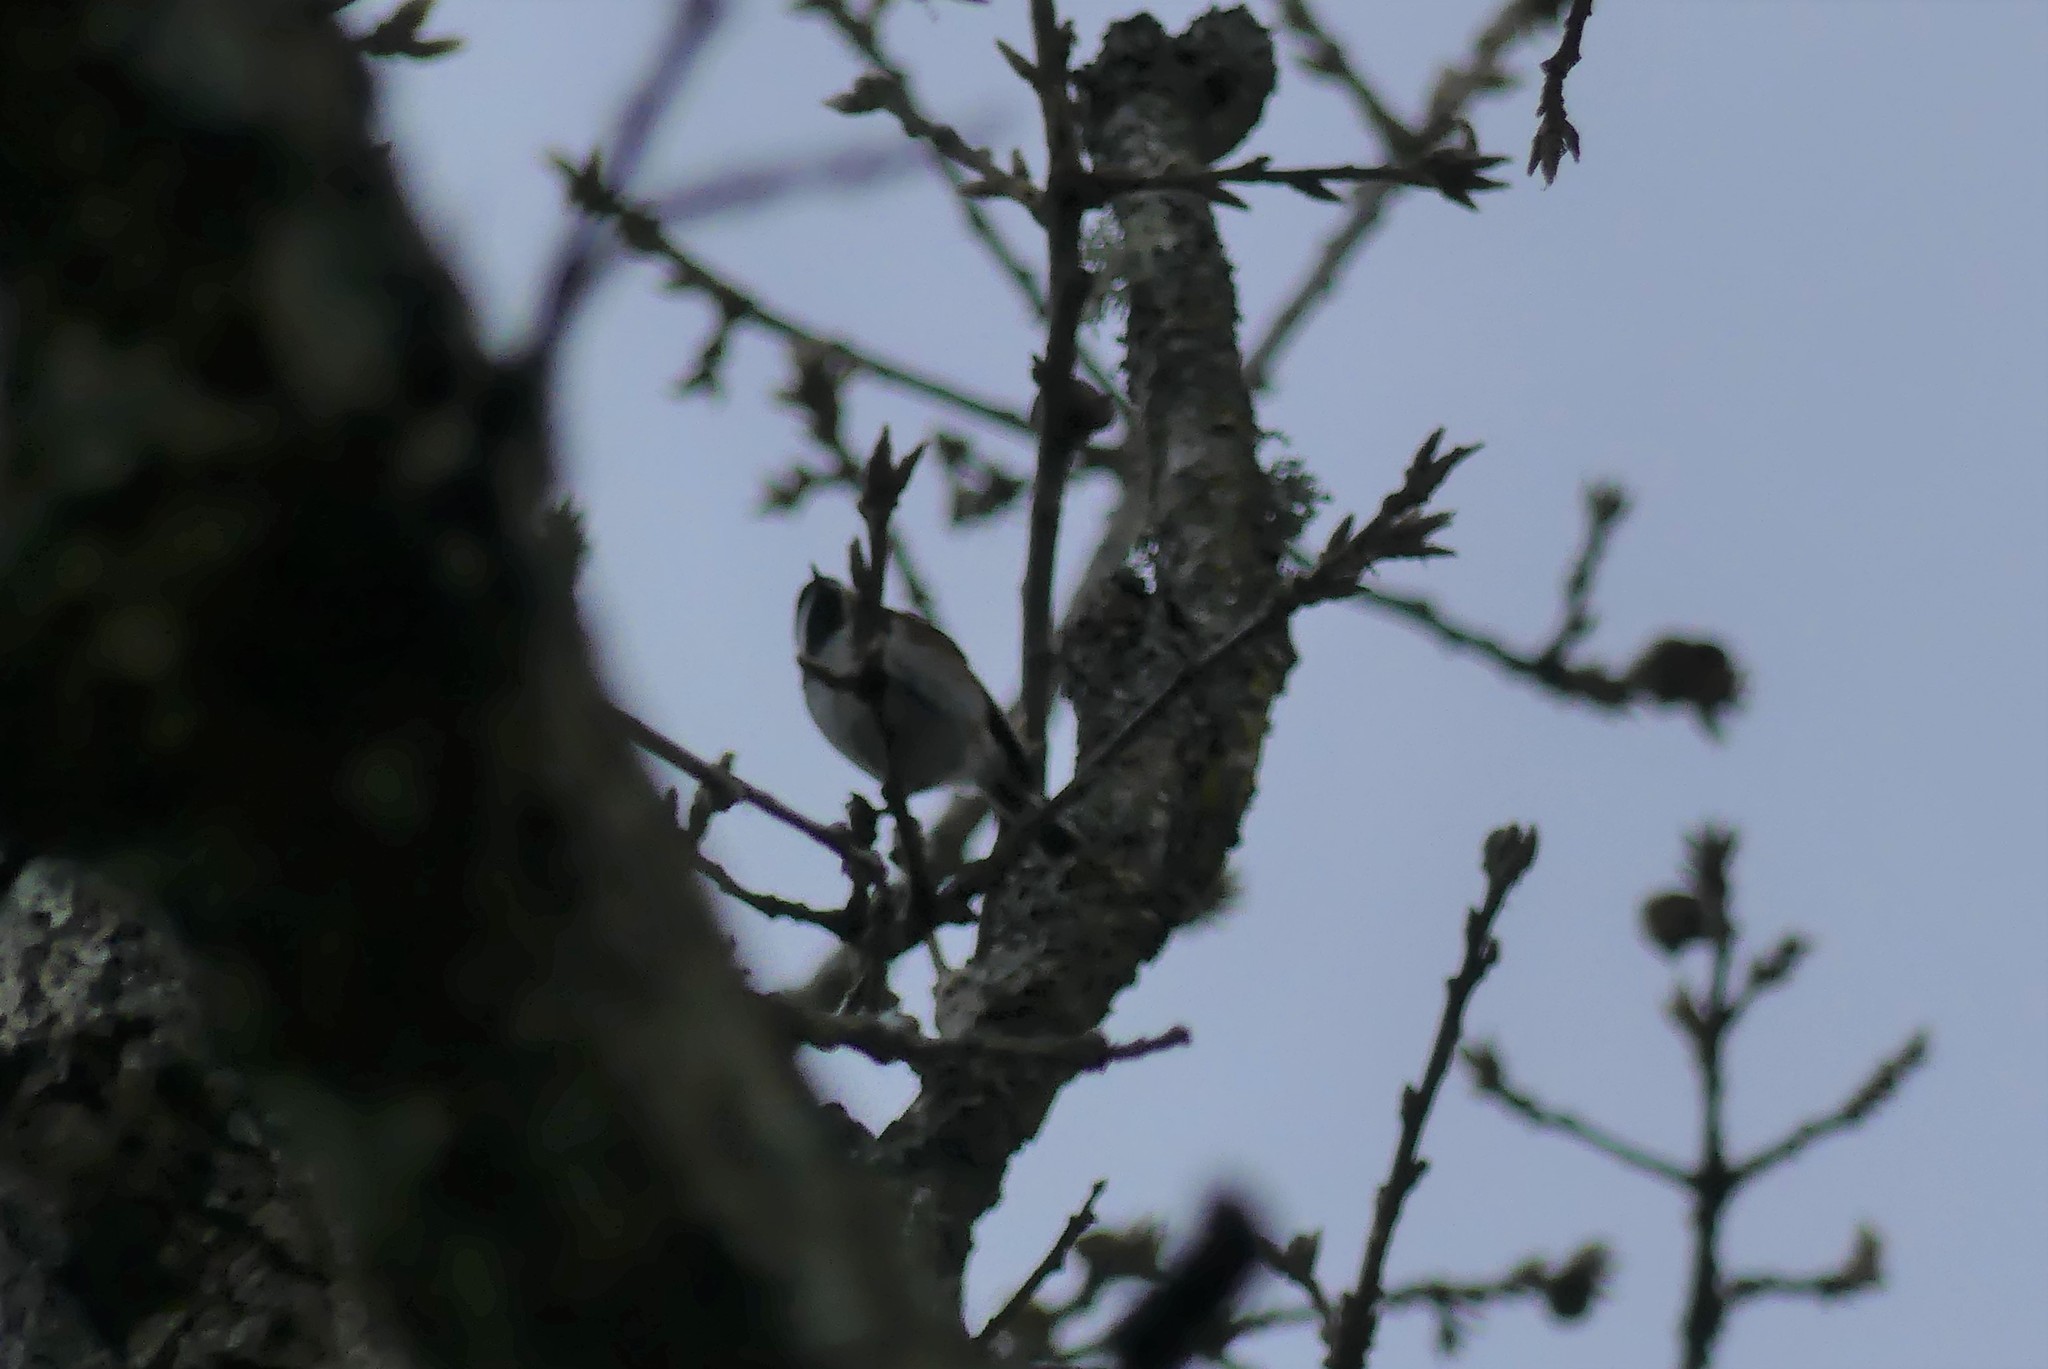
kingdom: Animalia
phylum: Chordata
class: Aves
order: Passeriformes
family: Paridae
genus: Poecile
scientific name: Poecile rufescens
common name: Chestnut-backed chickadee
